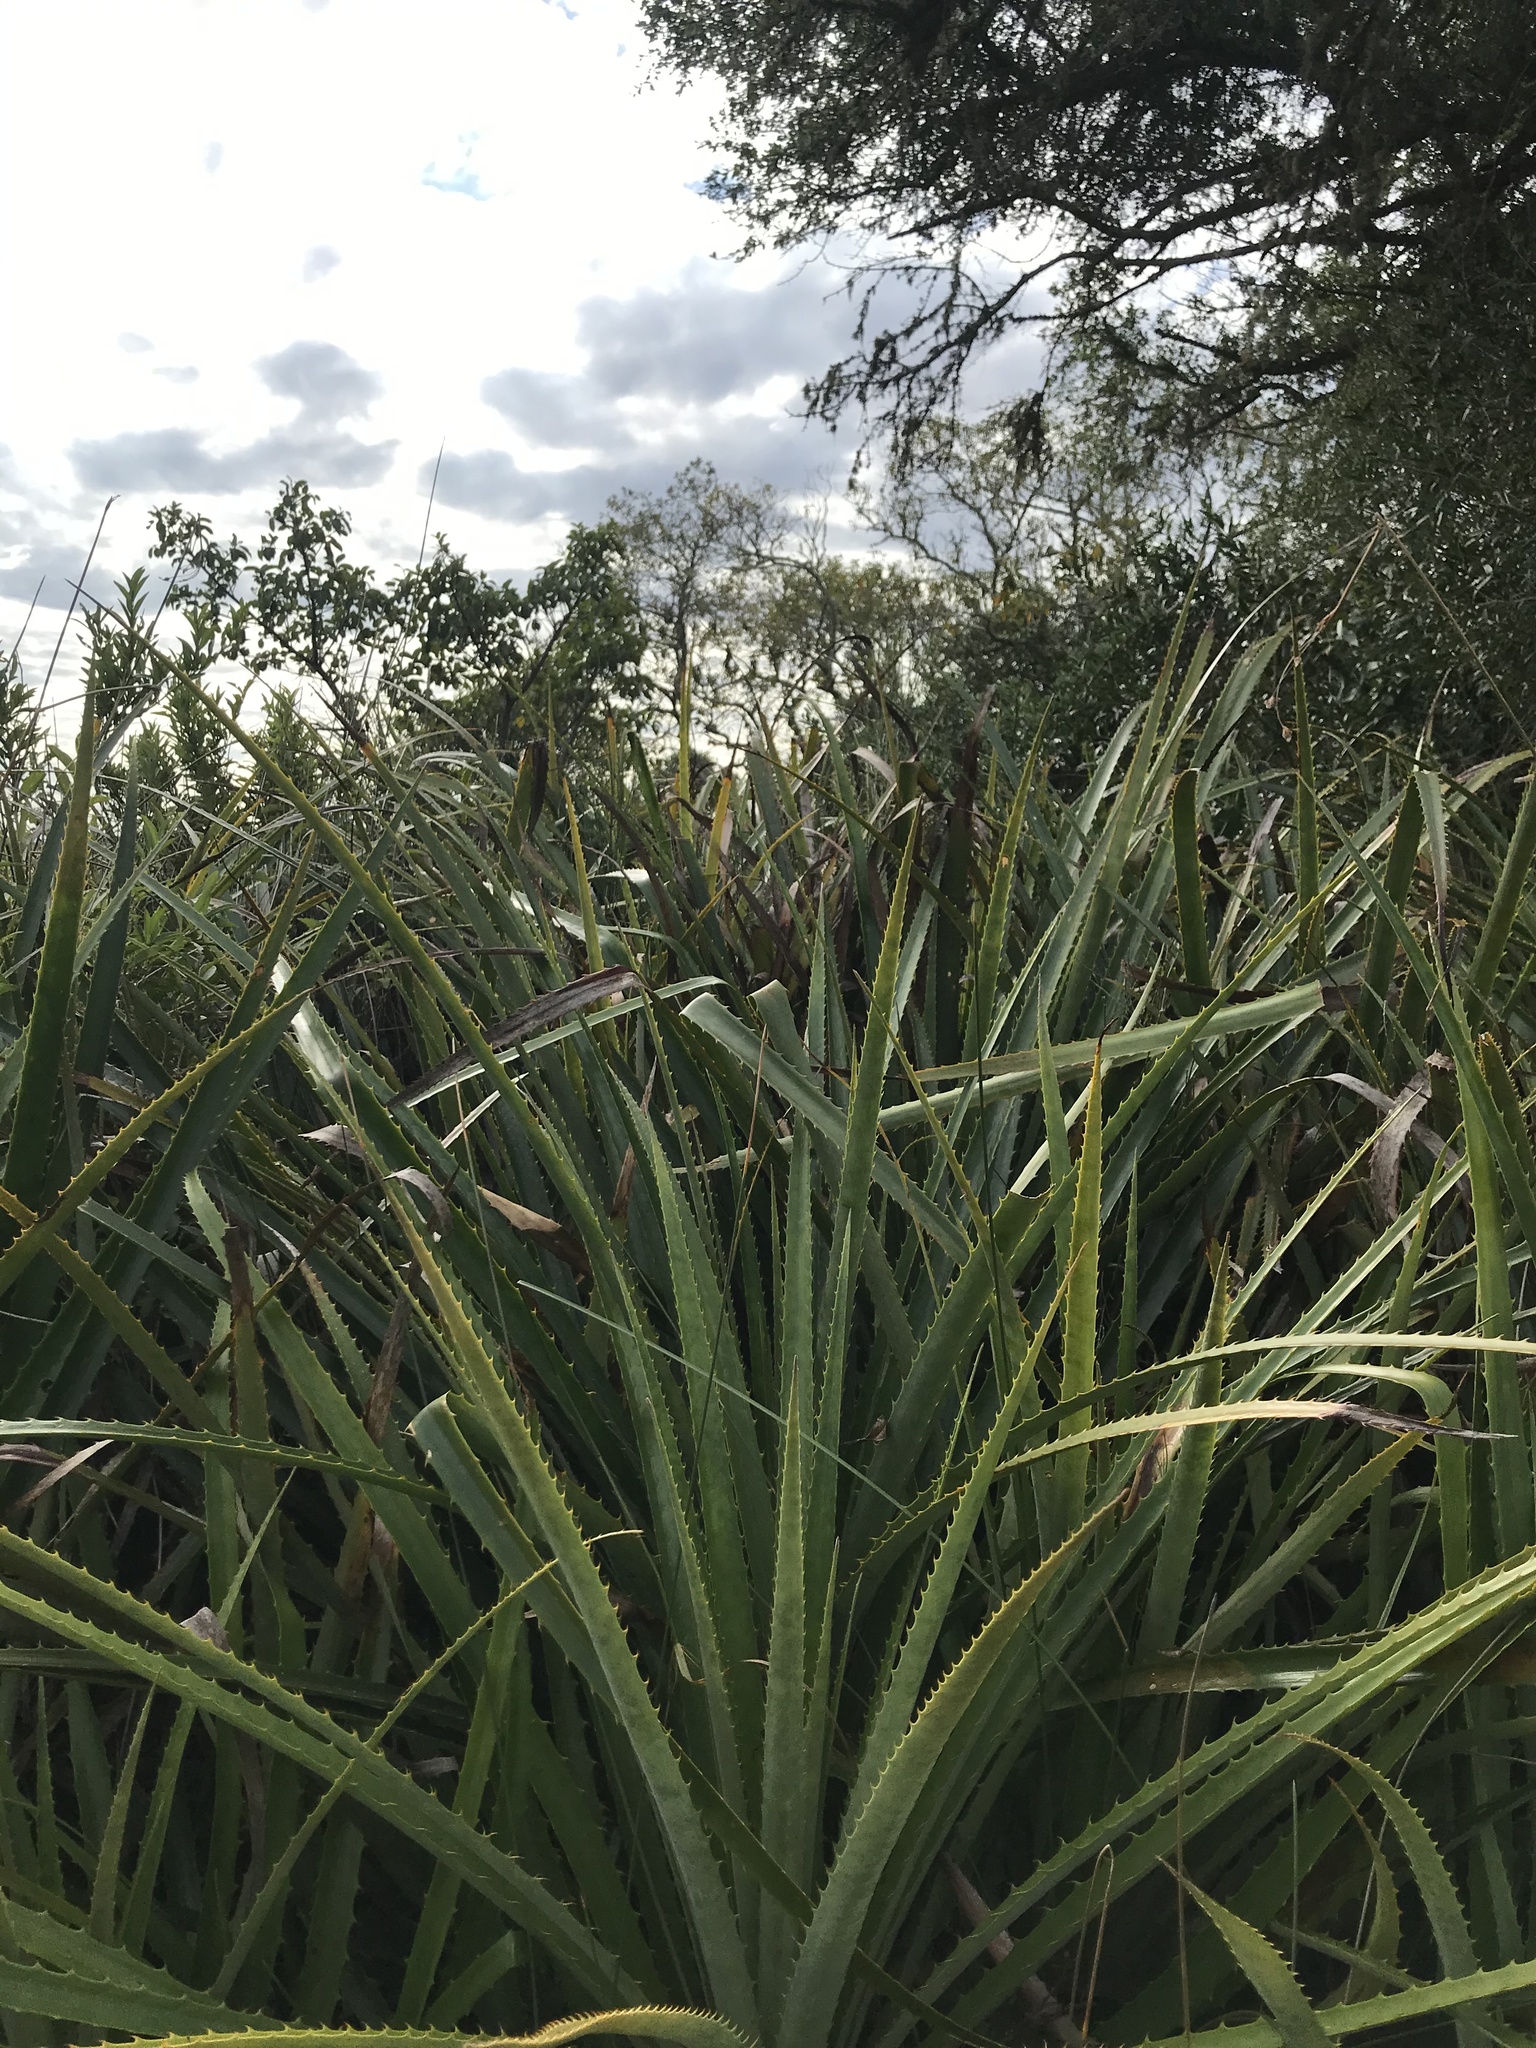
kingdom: Plantae
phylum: Tracheophyta
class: Liliopsida
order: Poales
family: Bromeliaceae
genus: Bromelia
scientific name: Bromelia antiacantha
